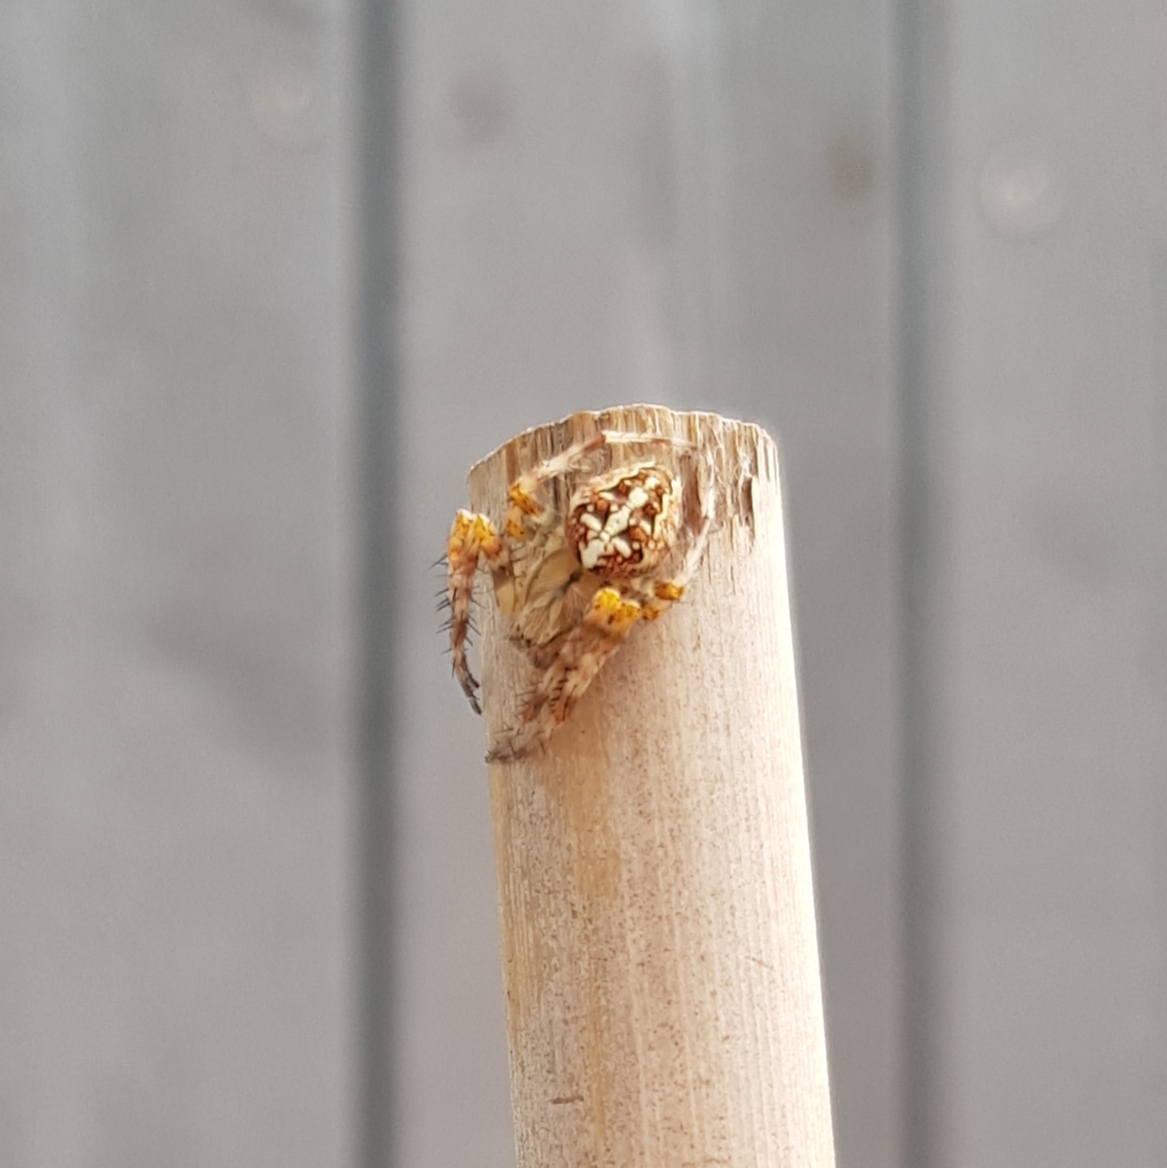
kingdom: Animalia
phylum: Arthropoda
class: Arachnida
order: Araneae
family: Araneidae
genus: Araneus
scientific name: Araneus diadematus
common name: Cross orbweaver
